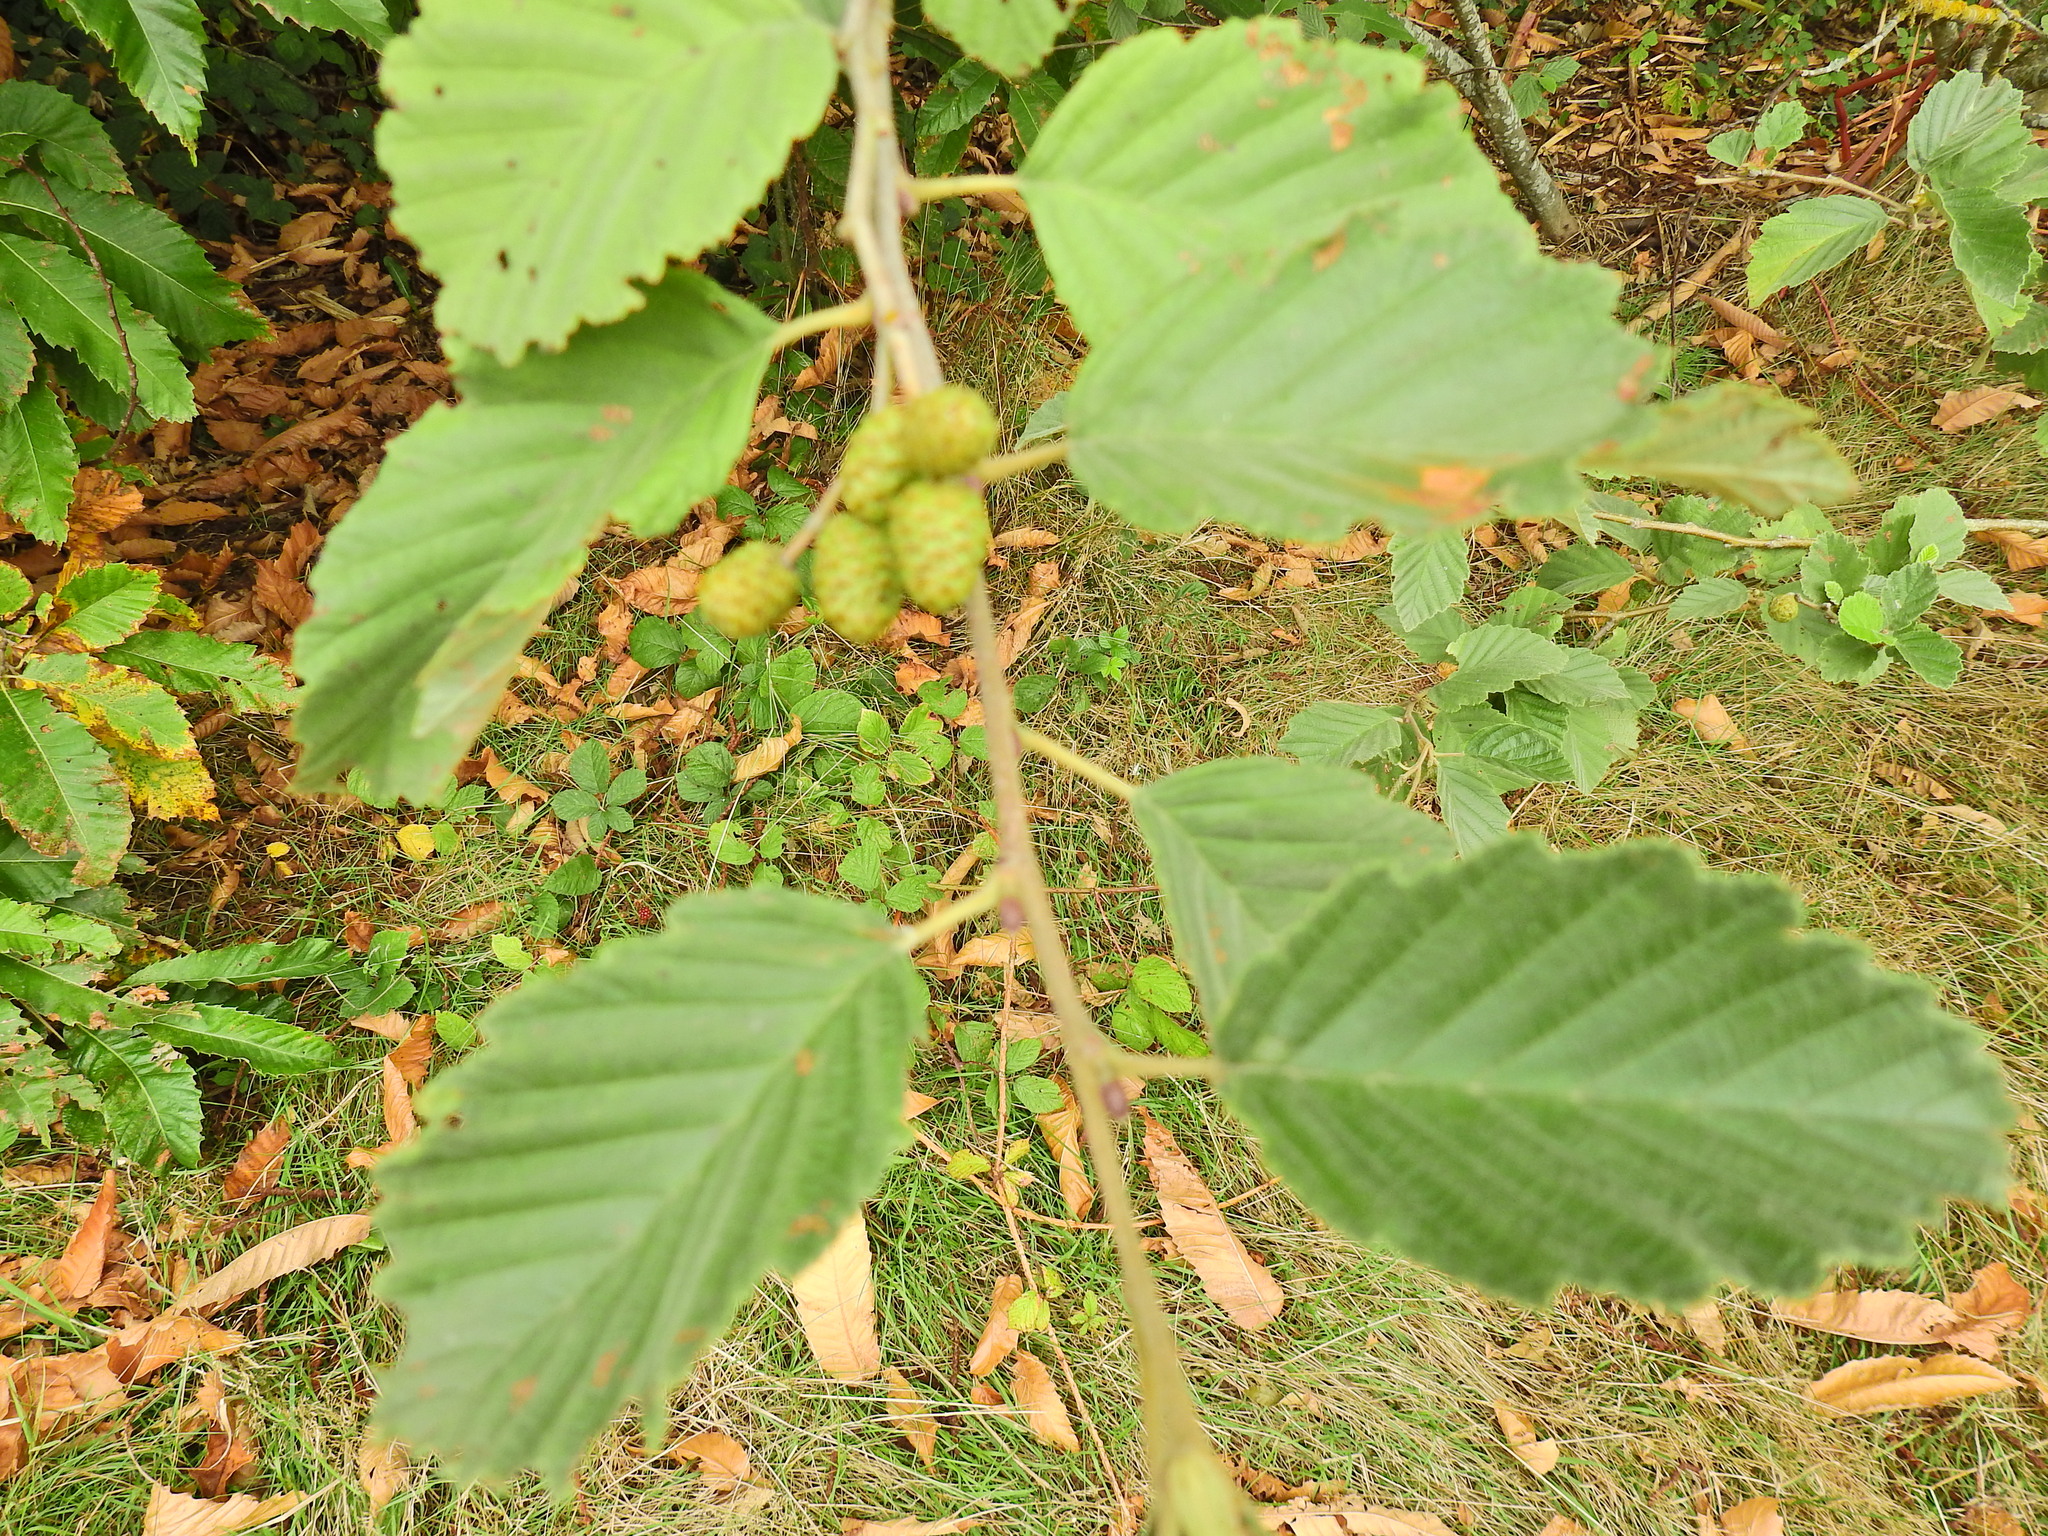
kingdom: Plantae
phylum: Tracheophyta
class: Magnoliopsida
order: Fagales
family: Betulaceae
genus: Alnus
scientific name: Alnus incana
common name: Grey alder
